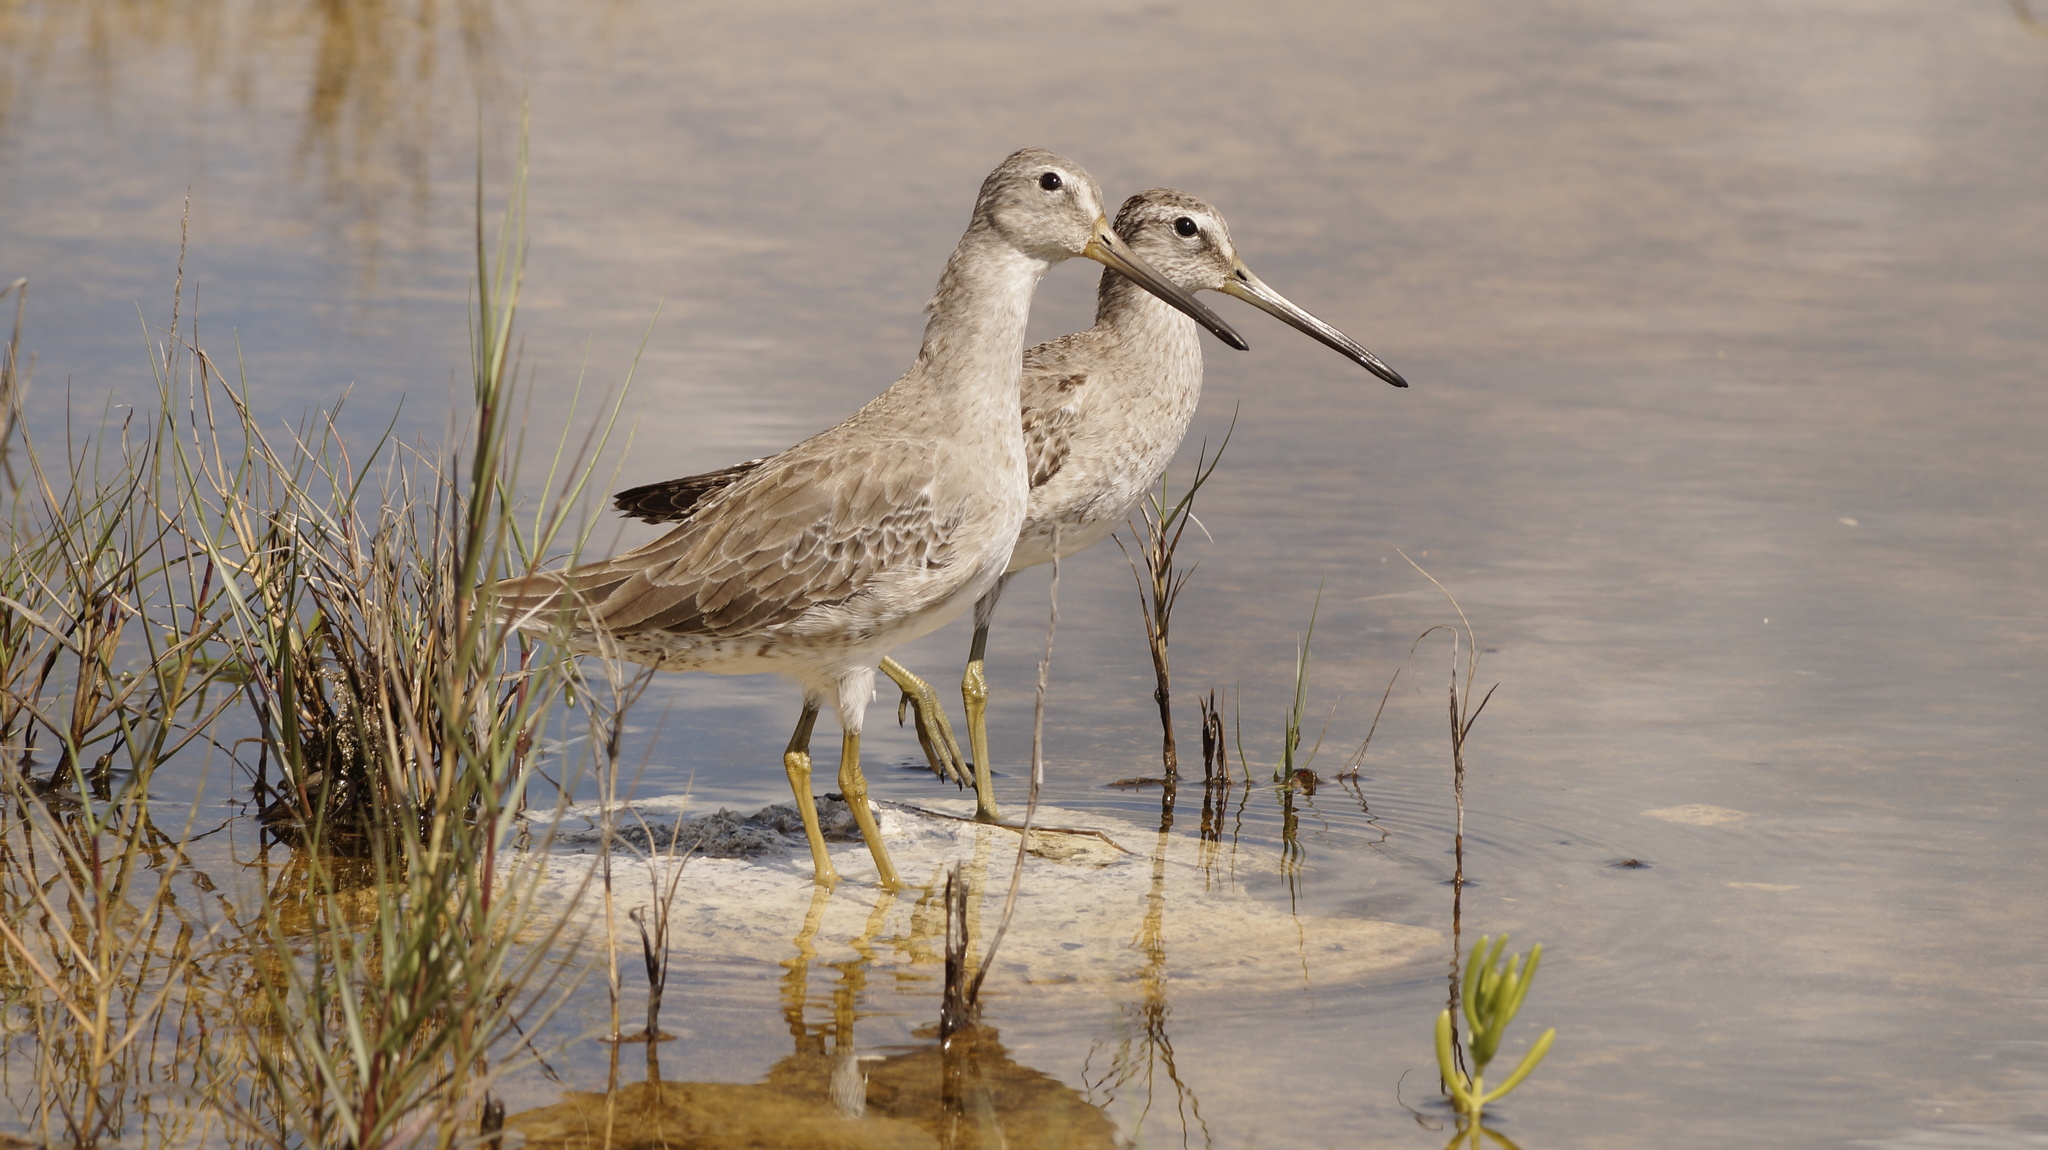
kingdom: Animalia
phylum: Chordata
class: Aves
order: Charadriiformes
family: Scolopacidae
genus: Limnodromus
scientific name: Limnodromus griseus
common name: Short-billed dowitcher
